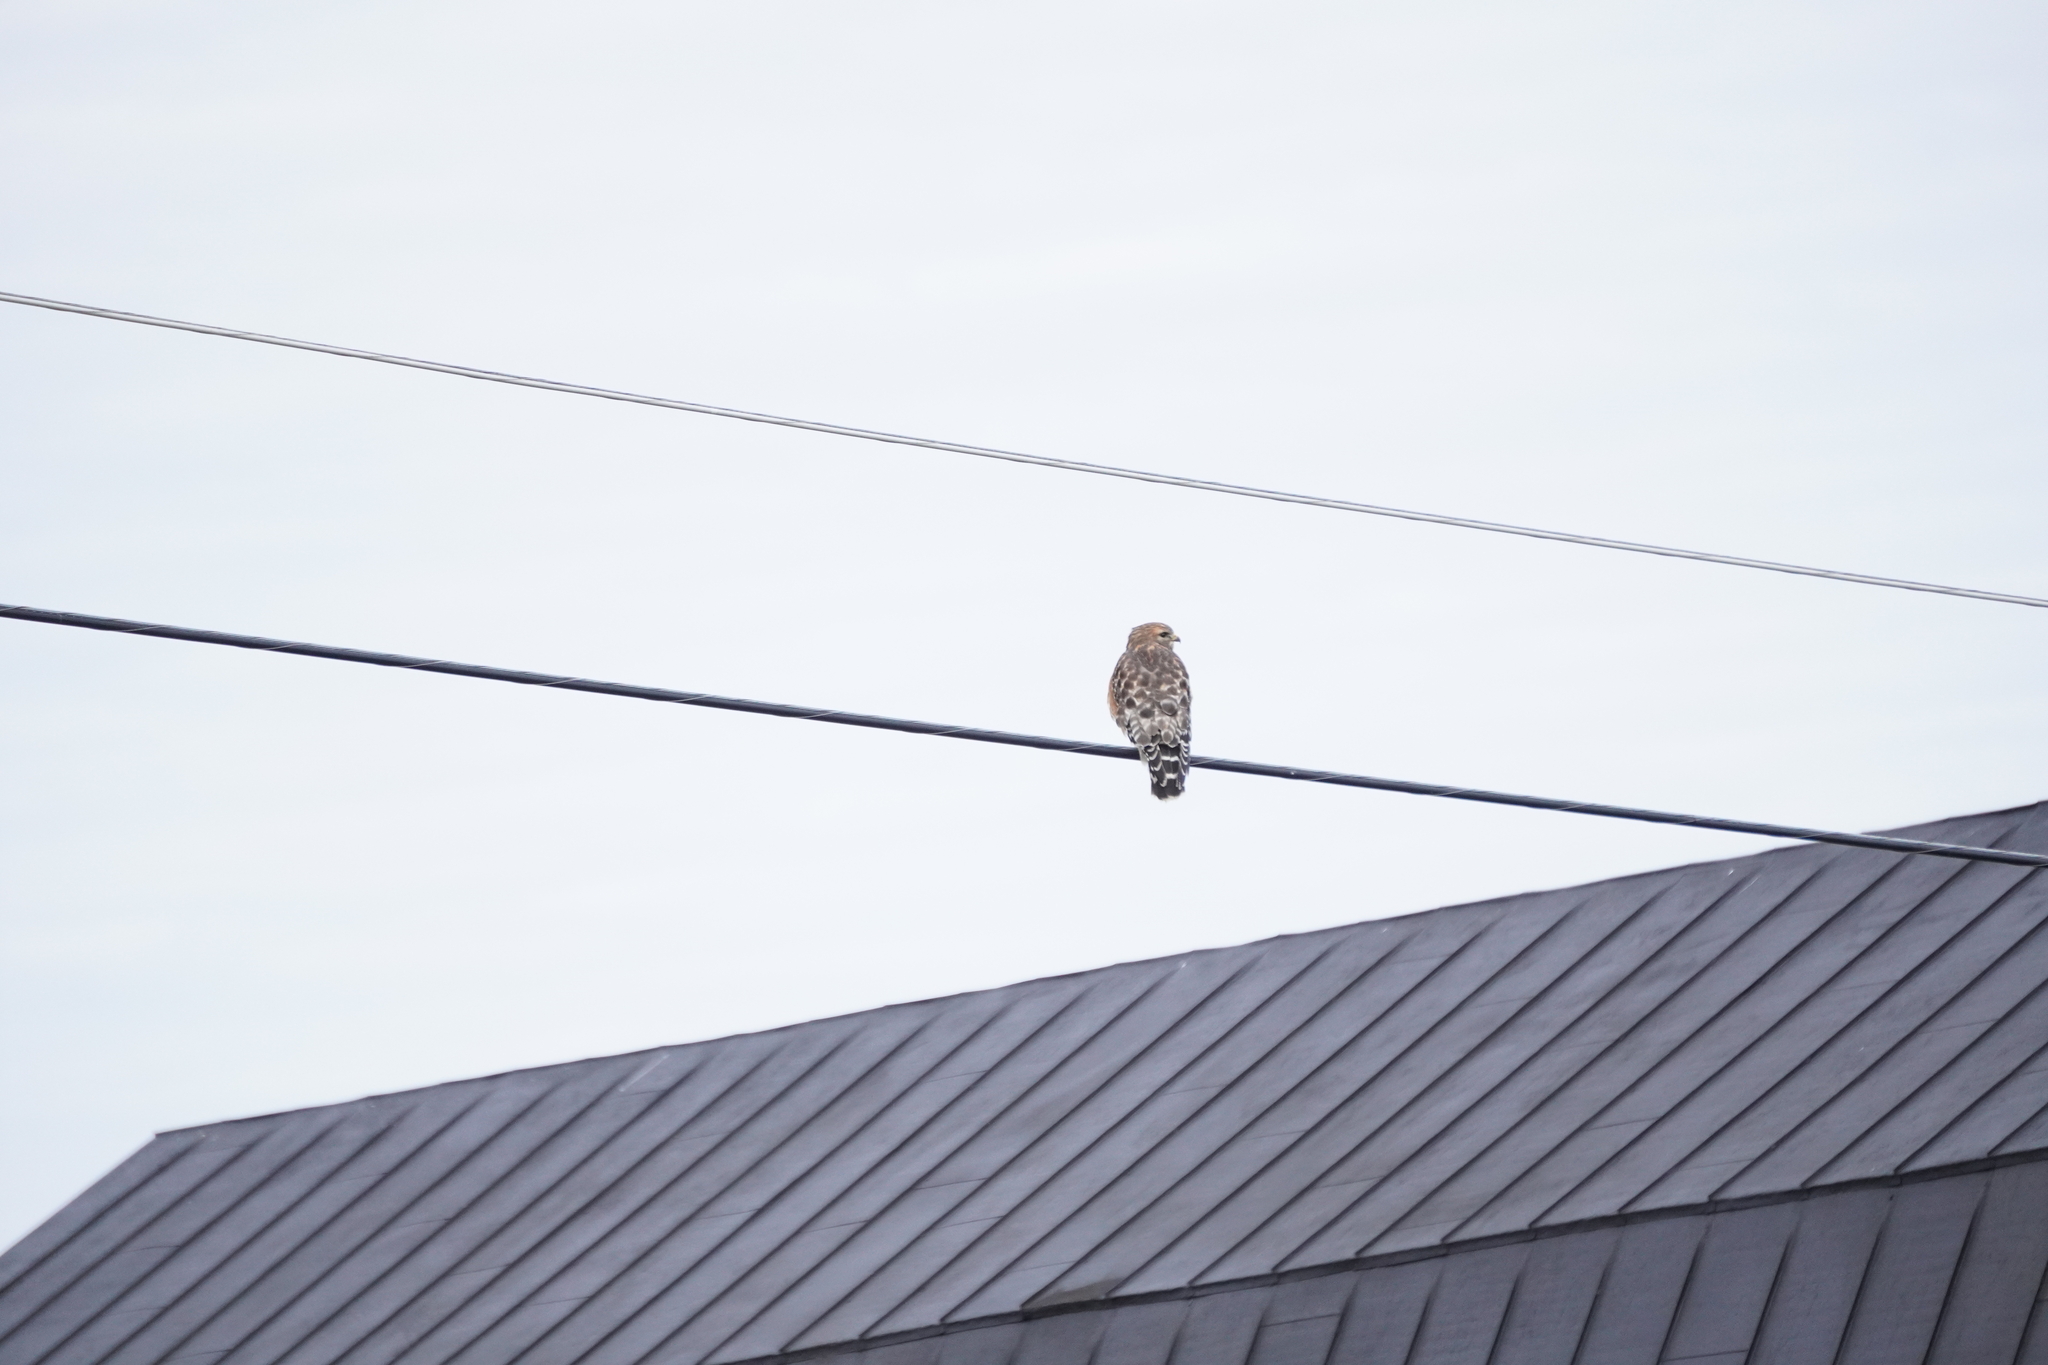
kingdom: Animalia
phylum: Chordata
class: Aves
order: Accipitriformes
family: Accipitridae
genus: Buteo
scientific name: Buteo lineatus
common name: Red-shouldered hawk
